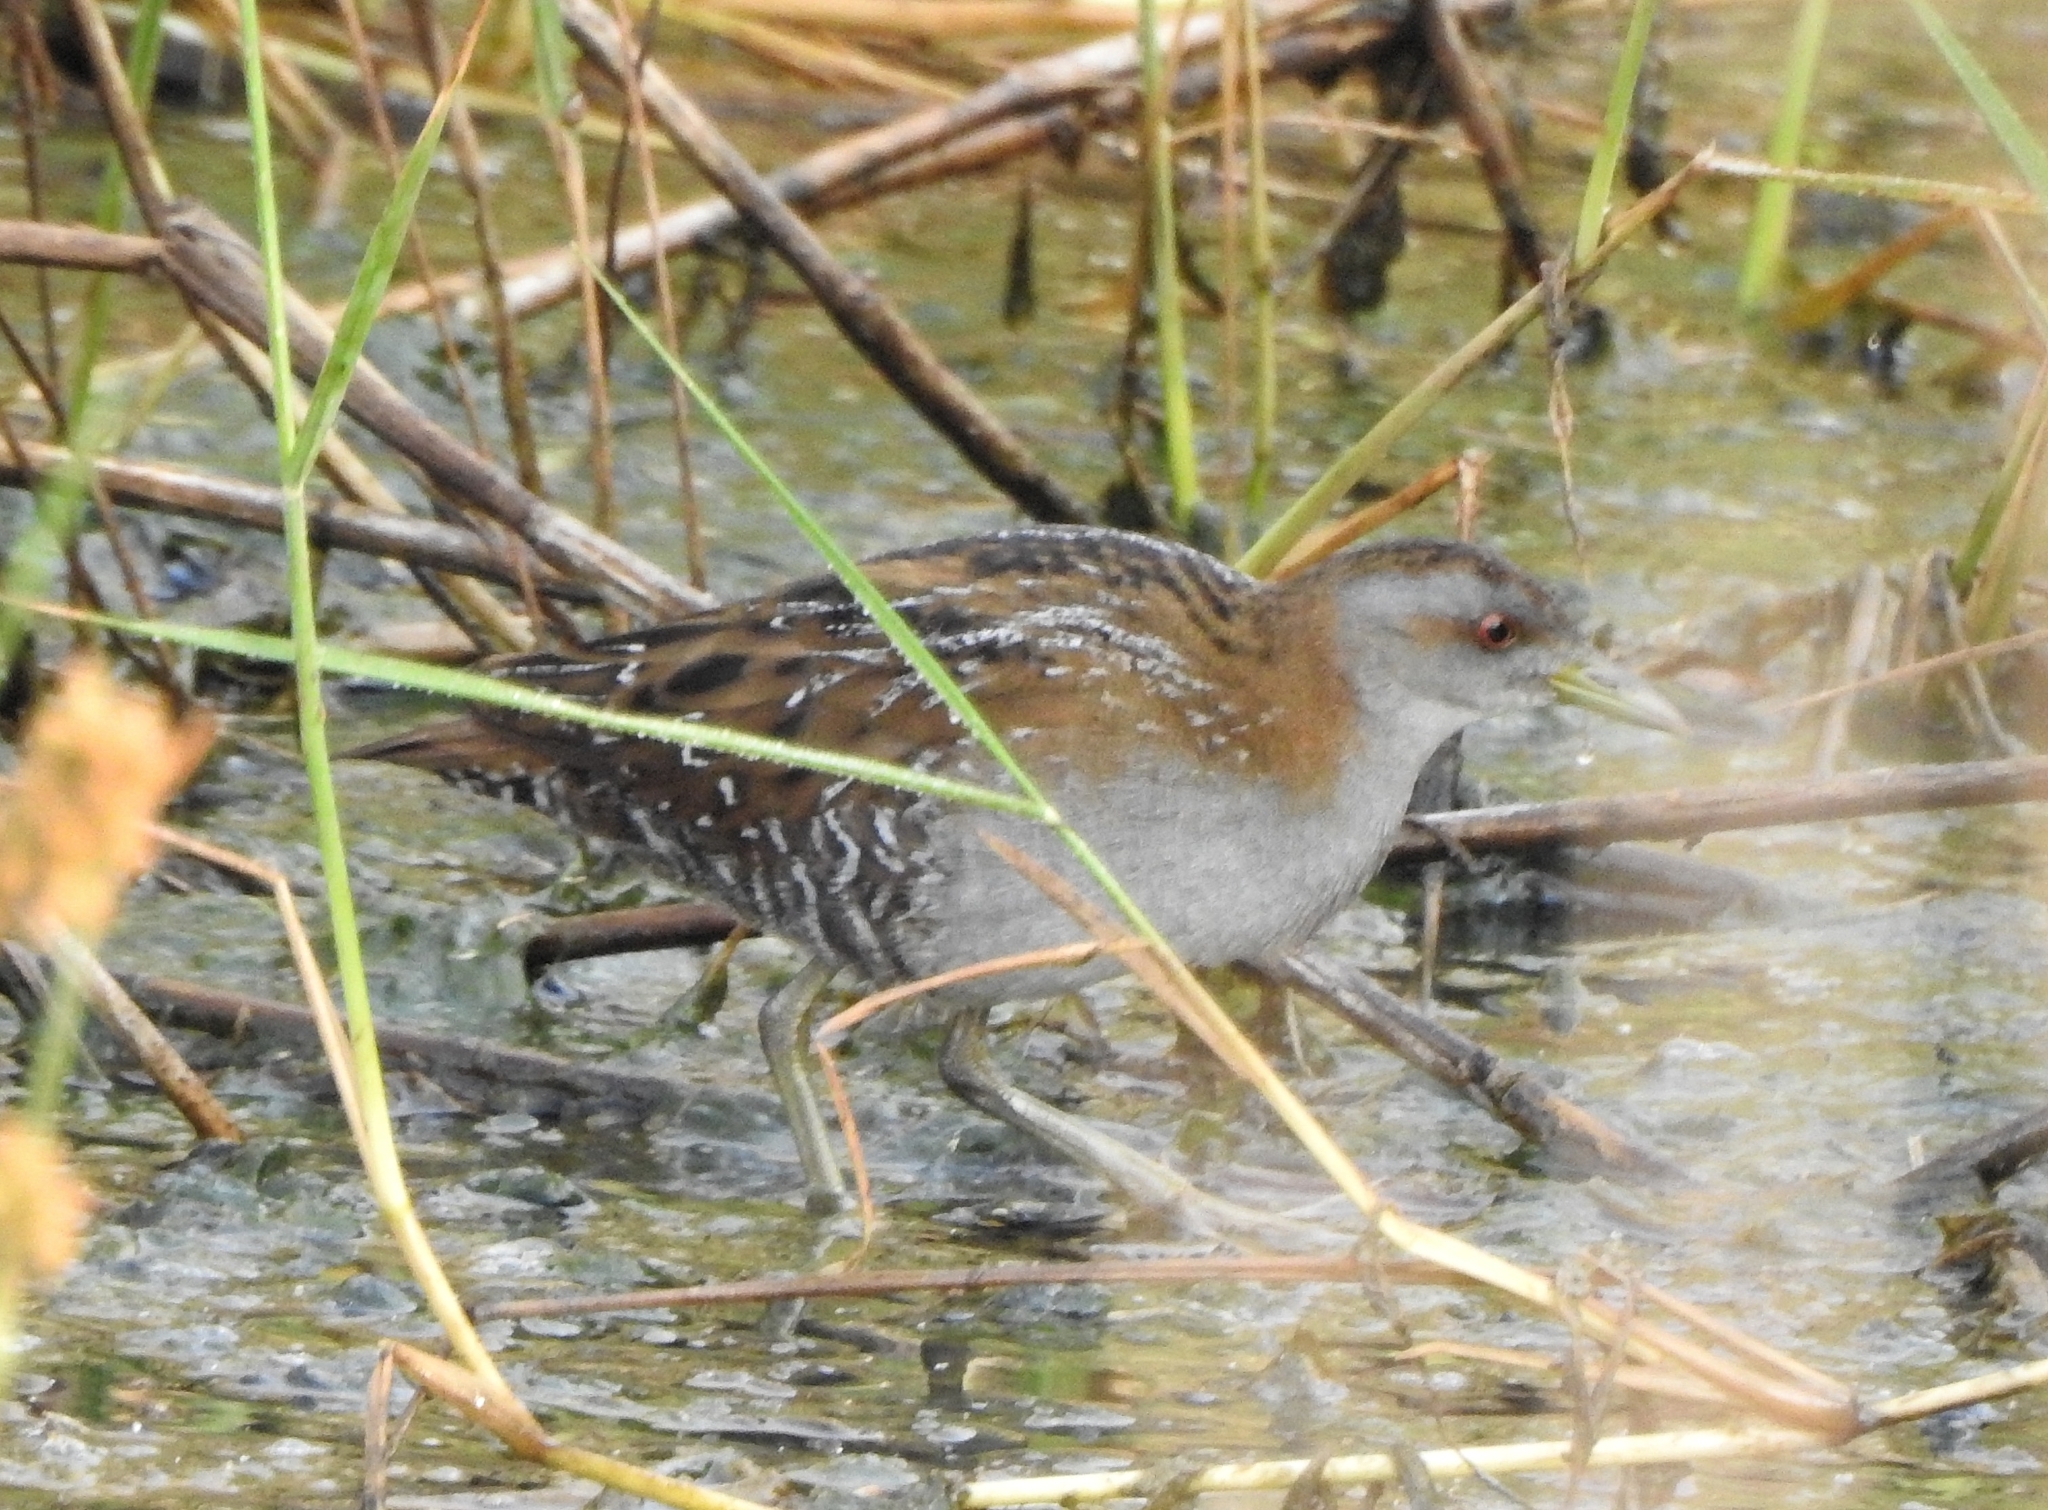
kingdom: Animalia
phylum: Chordata
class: Aves
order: Gruiformes
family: Rallidae
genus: Porzana
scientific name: Porzana pusilla
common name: Baillon's crake
